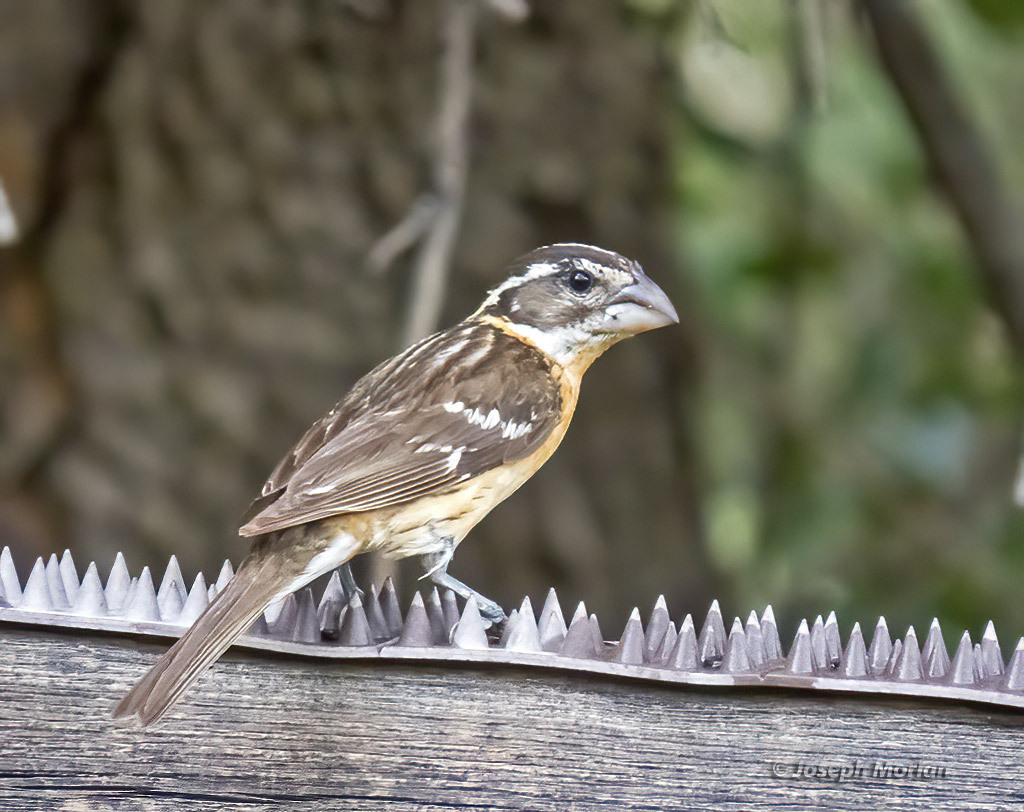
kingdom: Animalia
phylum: Chordata
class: Aves
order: Passeriformes
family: Cardinalidae
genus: Pheucticus
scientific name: Pheucticus melanocephalus
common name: Black-headed grosbeak
